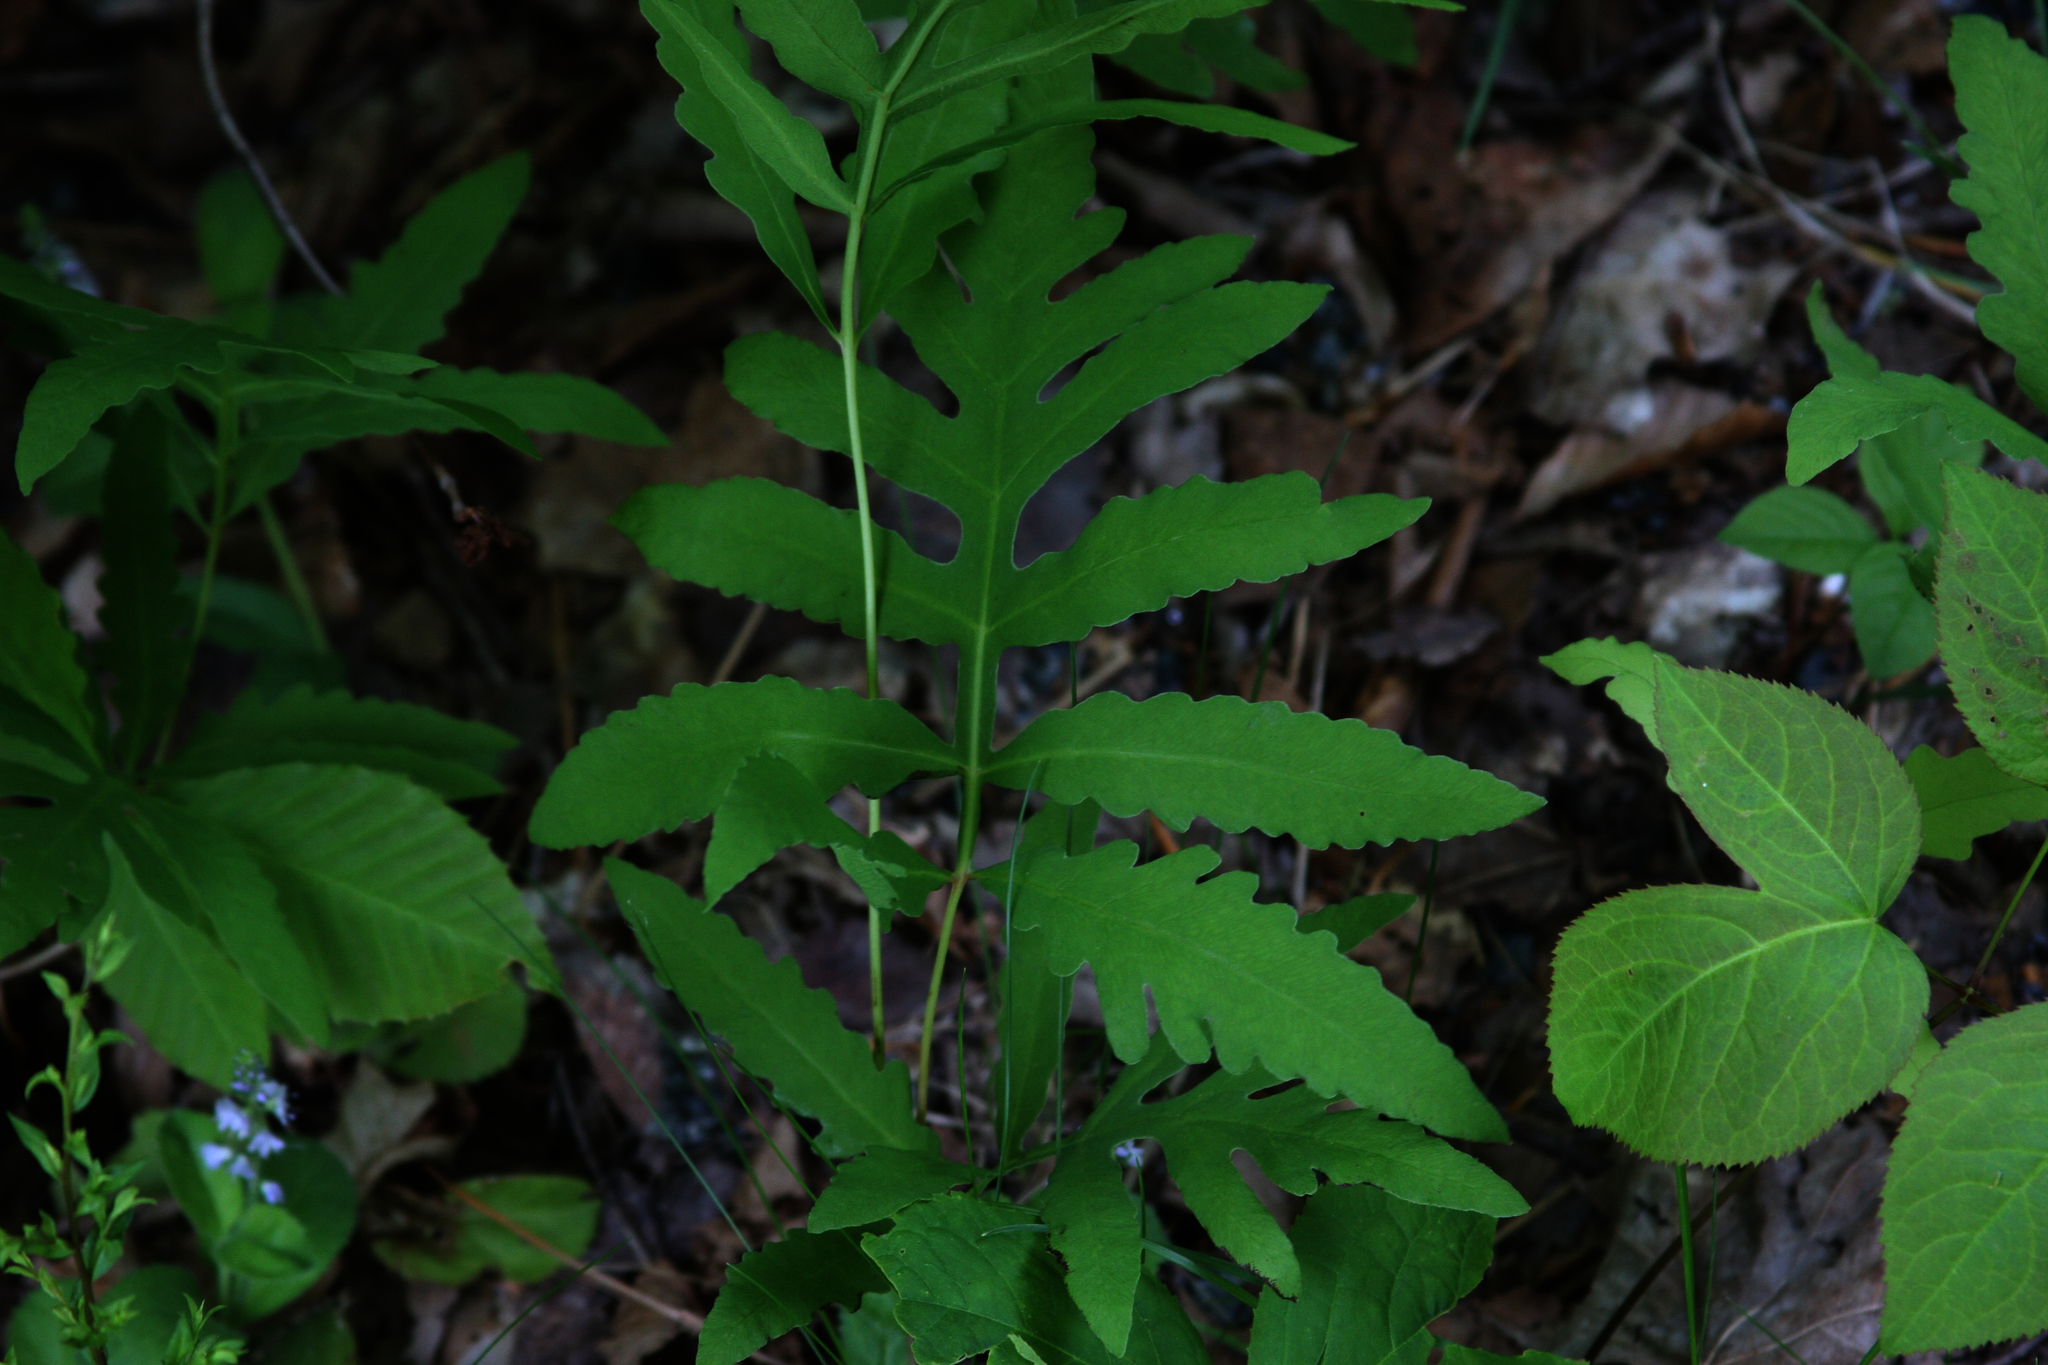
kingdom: Plantae
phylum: Tracheophyta
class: Magnoliopsida
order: Apiales
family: Araliaceae
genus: Aralia
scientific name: Aralia nudicaulis
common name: Wild sarsaparilla
